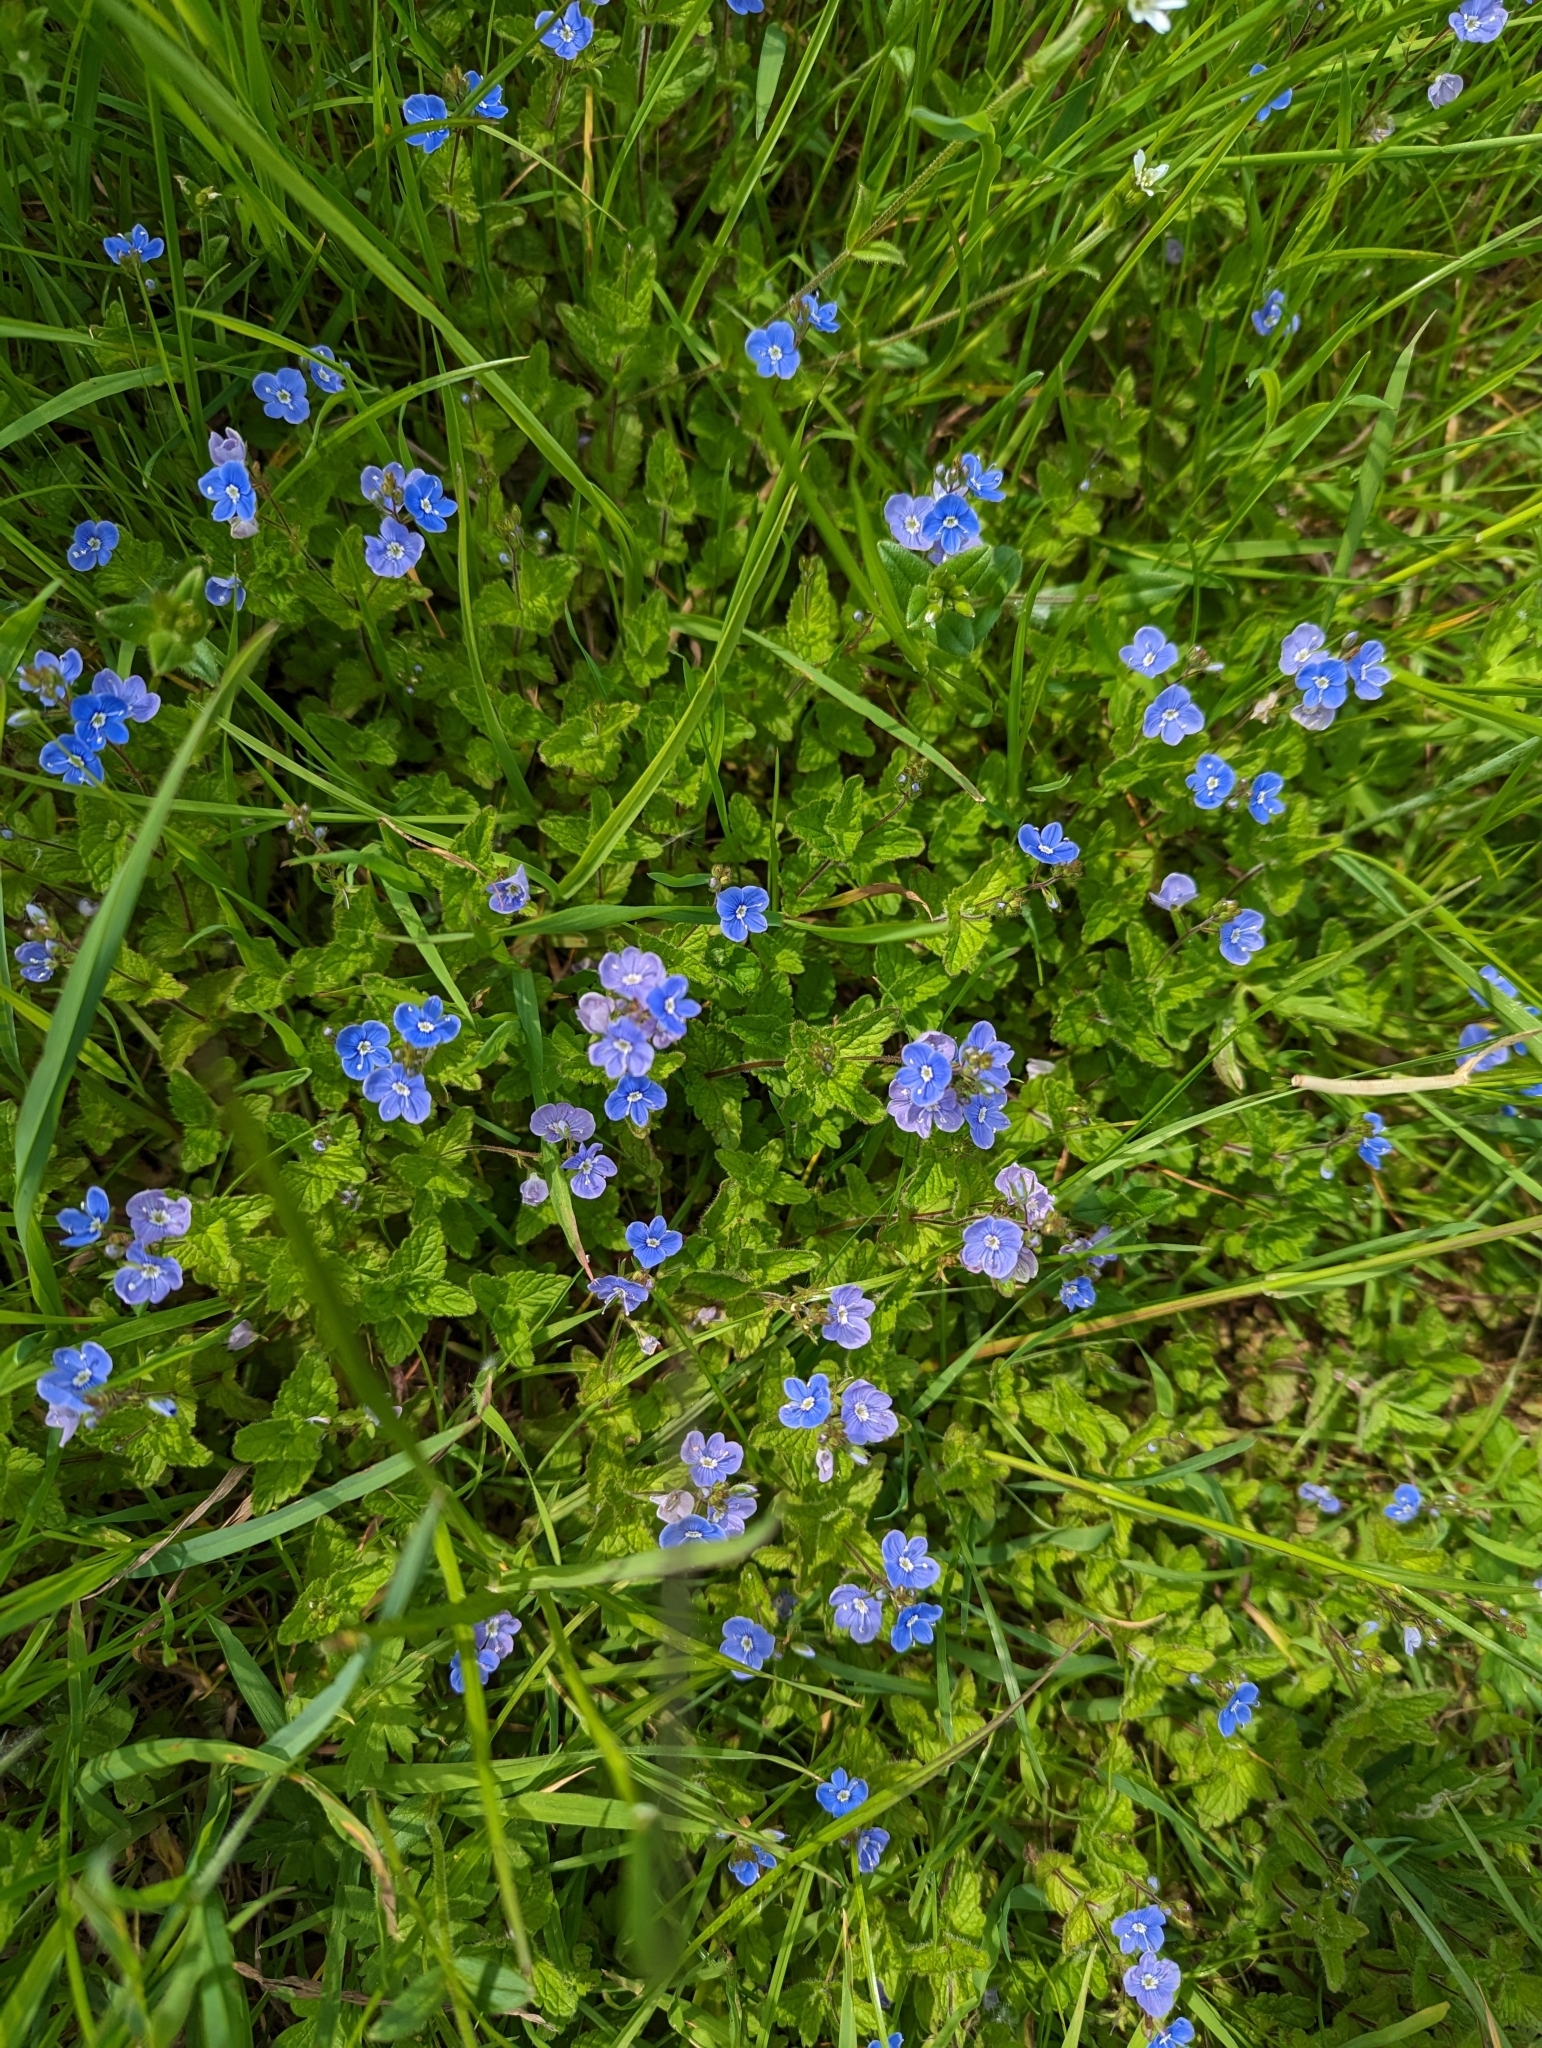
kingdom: Plantae
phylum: Tracheophyta
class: Magnoliopsida
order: Lamiales
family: Plantaginaceae
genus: Veronica
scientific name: Veronica chamaedrys
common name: Germander speedwell
